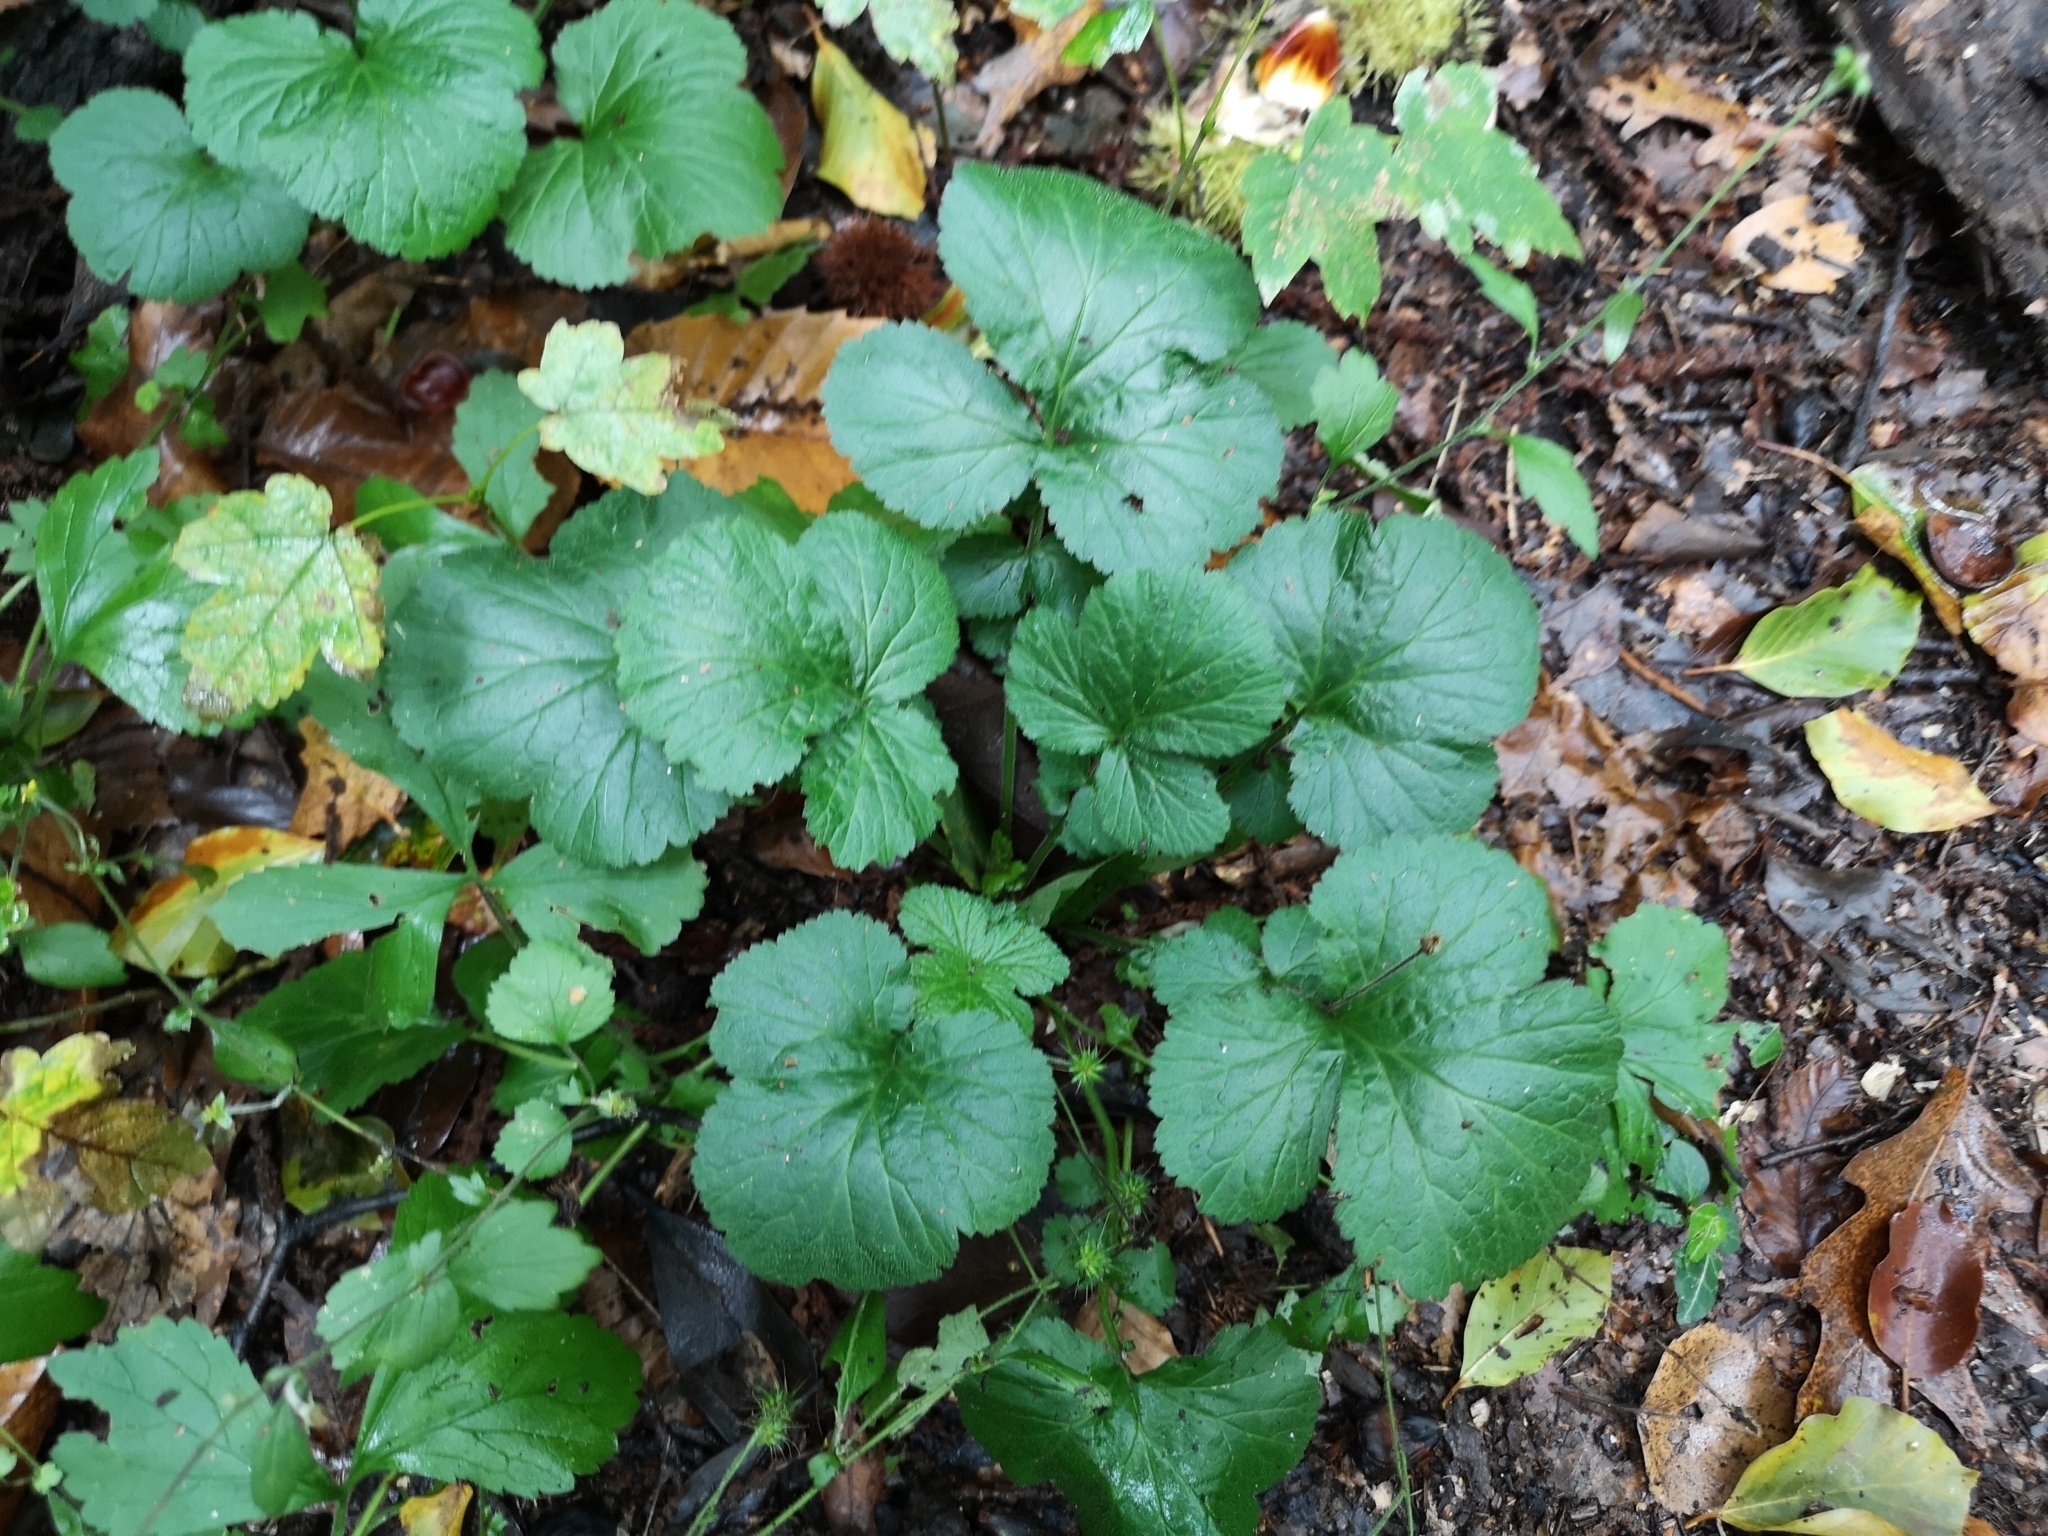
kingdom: Plantae
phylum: Tracheophyta
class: Magnoliopsida
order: Rosales
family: Rosaceae
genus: Geum
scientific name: Geum urbanum
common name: Wood avens
